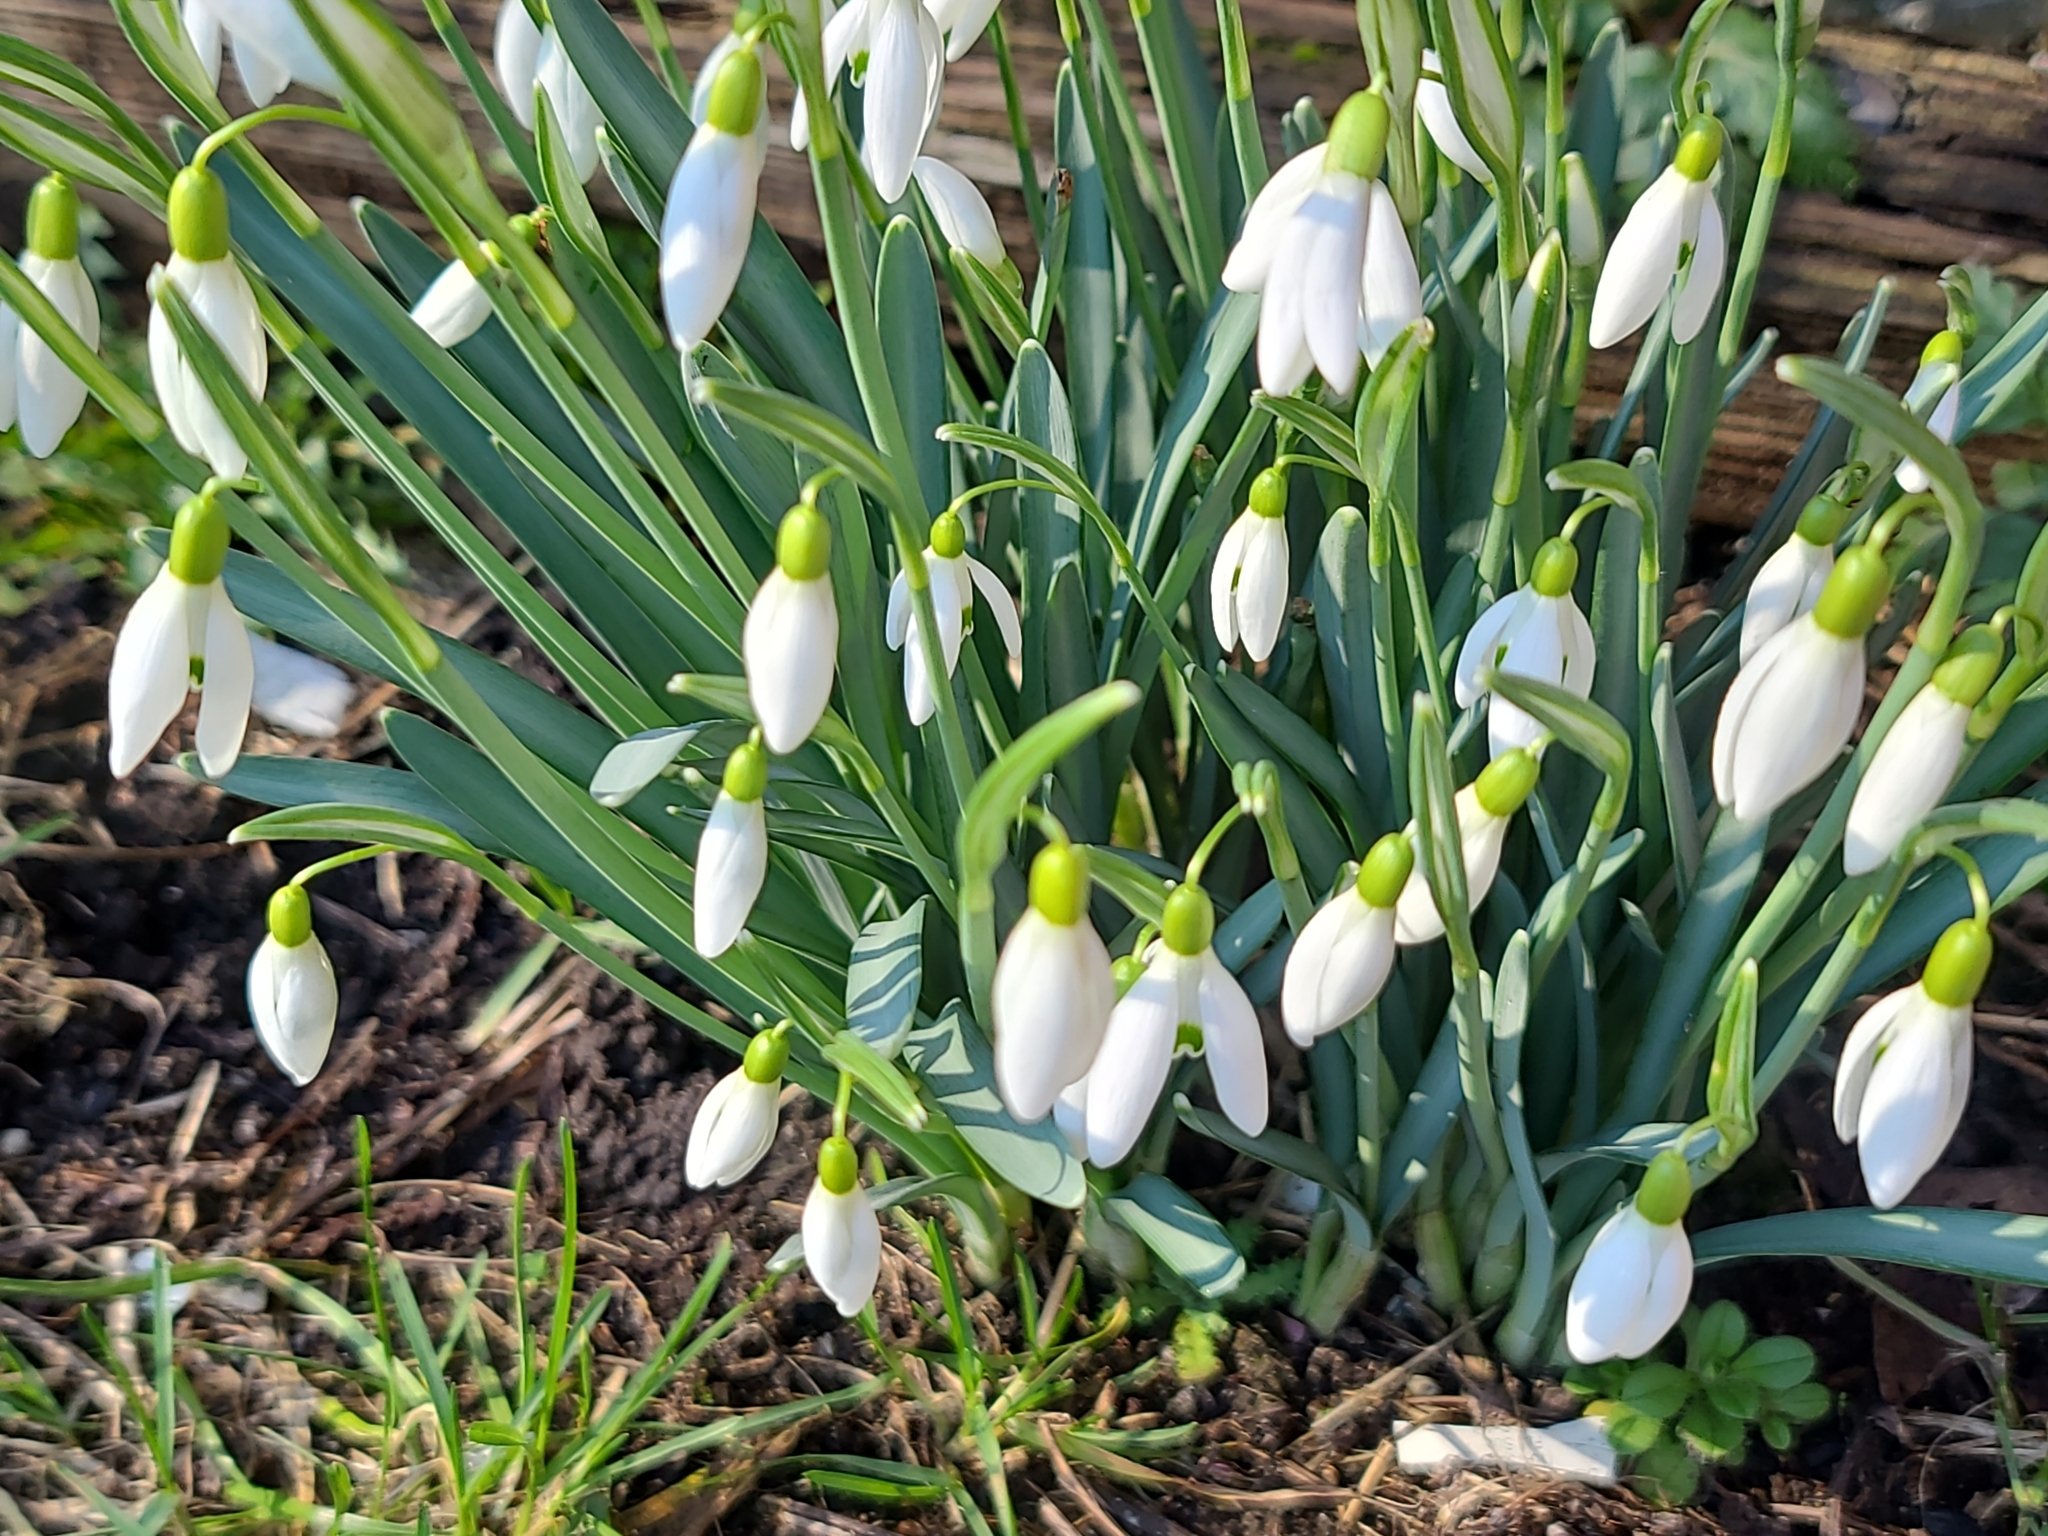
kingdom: Plantae
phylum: Tracheophyta
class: Liliopsida
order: Asparagales
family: Amaryllidaceae
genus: Galanthus
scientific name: Galanthus nivalis
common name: Snowdrop
